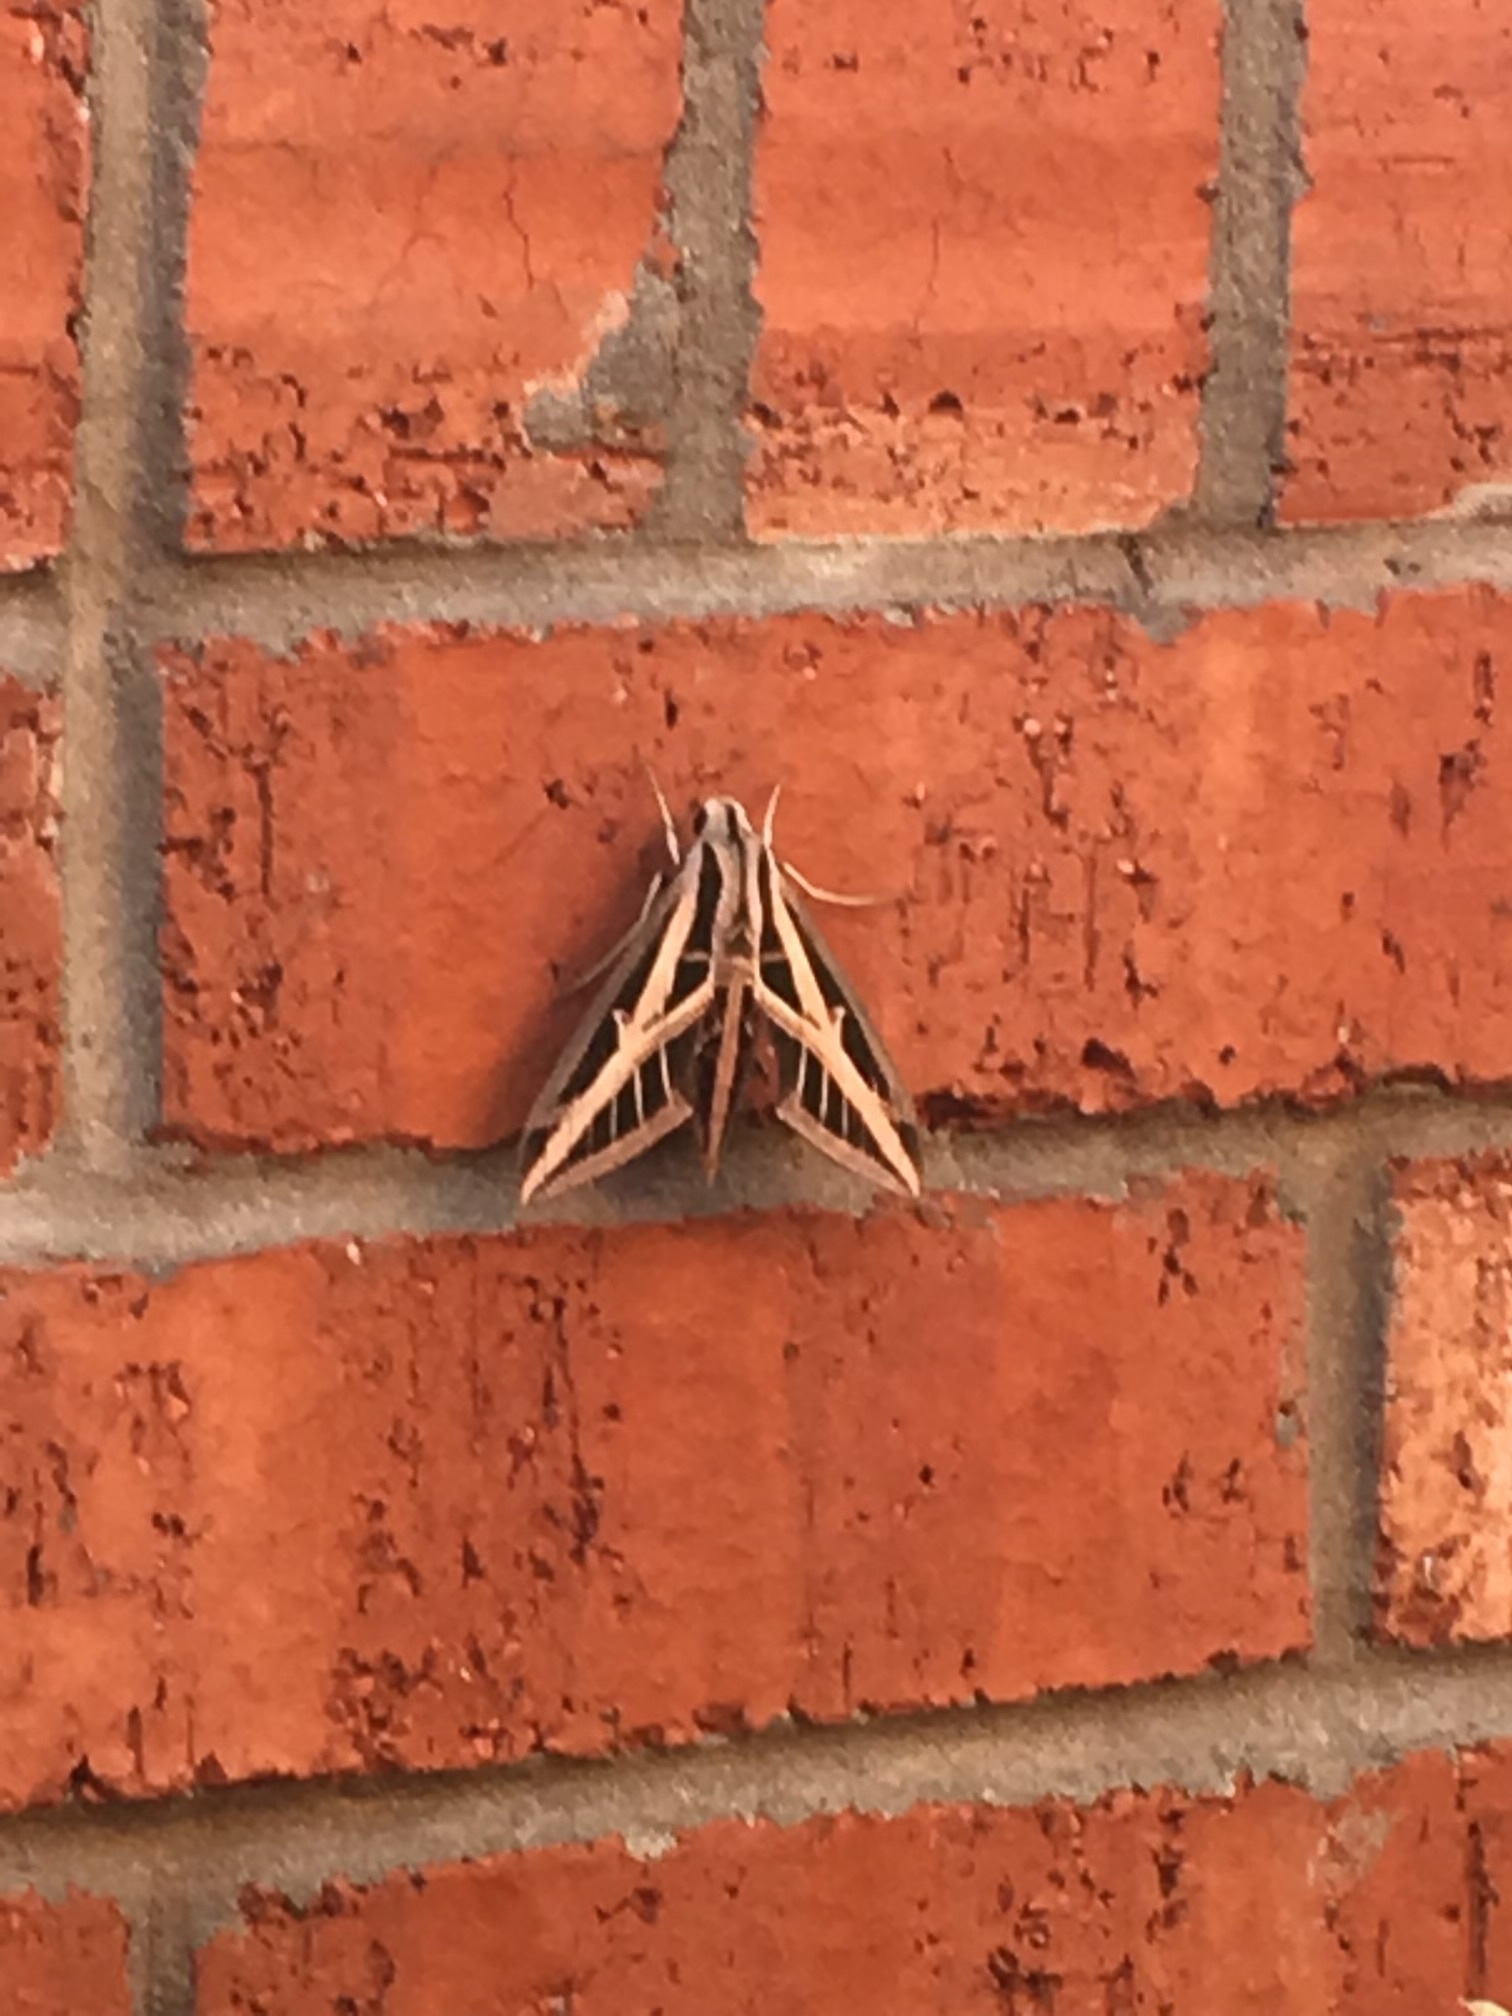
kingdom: Animalia
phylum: Arthropoda
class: Insecta
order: Lepidoptera
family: Sphingidae
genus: Eumorpha
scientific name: Eumorpha fasciatus
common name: Banded sphinx
